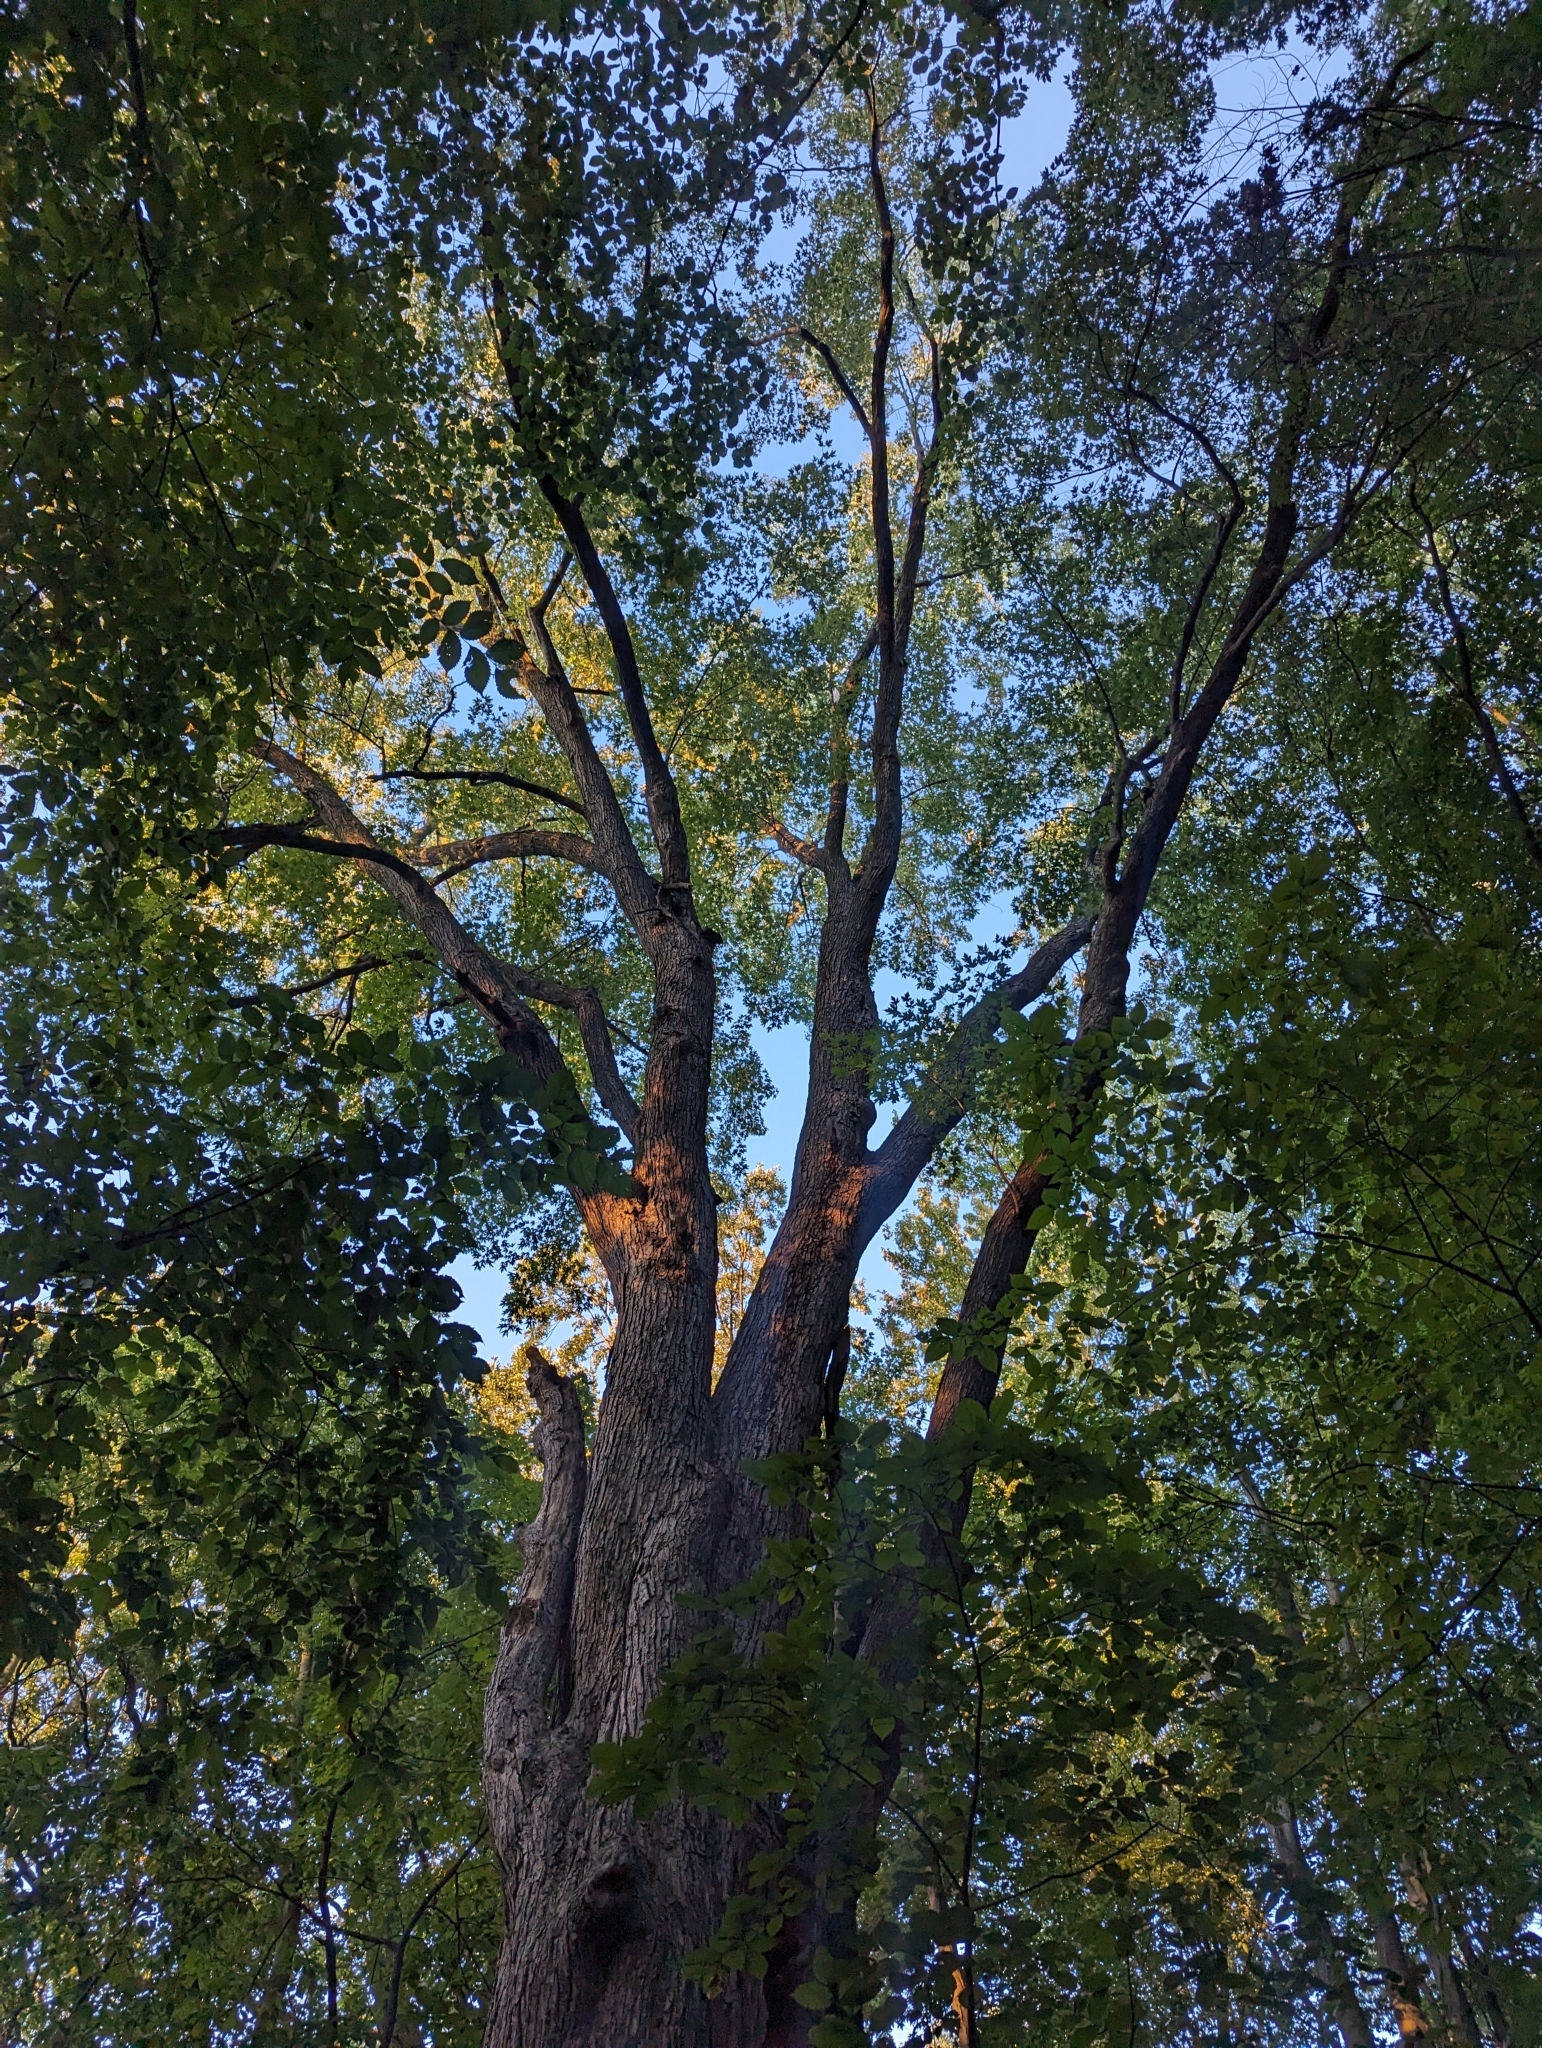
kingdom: Plantae
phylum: Tracheophyta
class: Magnoliopsida
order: Sapindales
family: Sapindaceae
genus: Acer
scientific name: Acer saccharinum
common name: Silver maple
